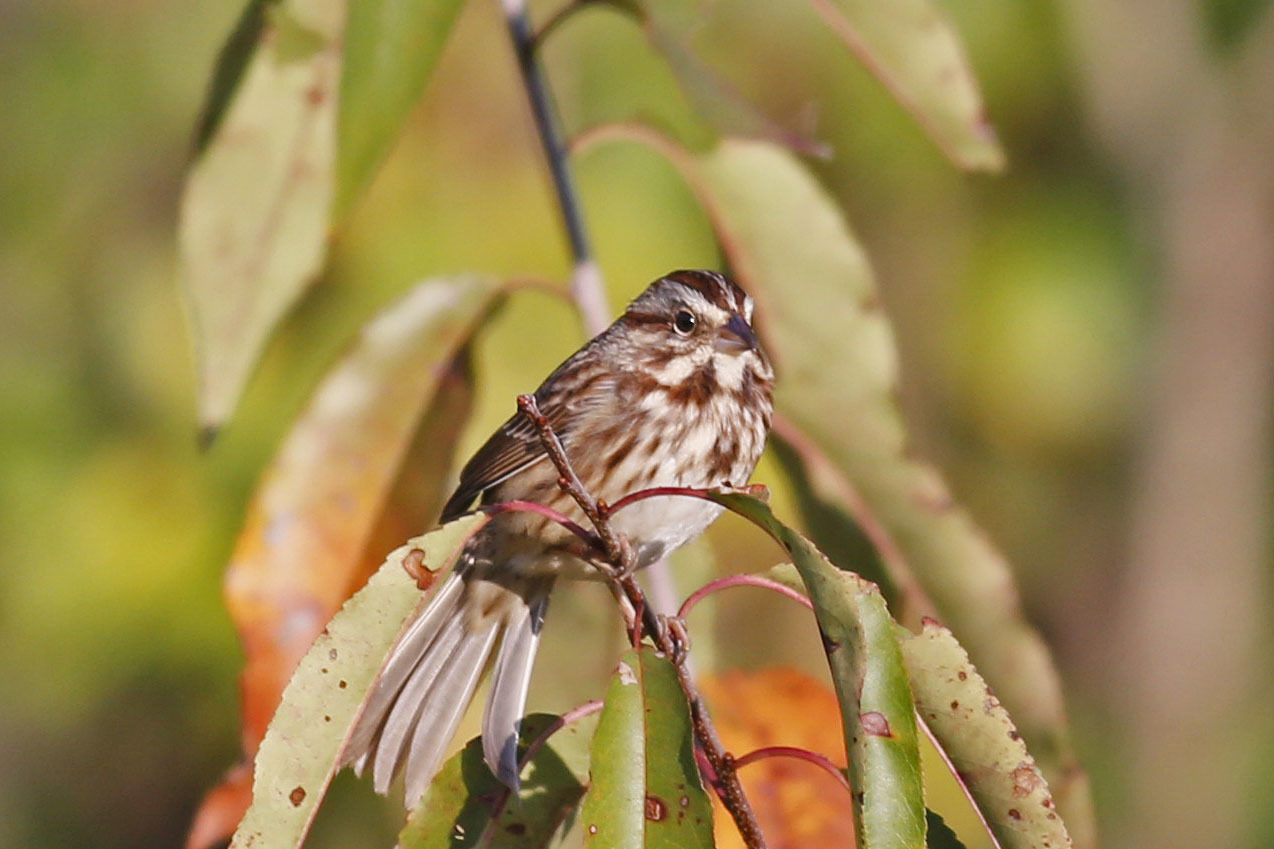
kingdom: Animalia
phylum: Chordata
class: Aves
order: Passeriformes
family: Passerellidae
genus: Melospiza
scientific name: Melospiza melodia
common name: Song sparrow
